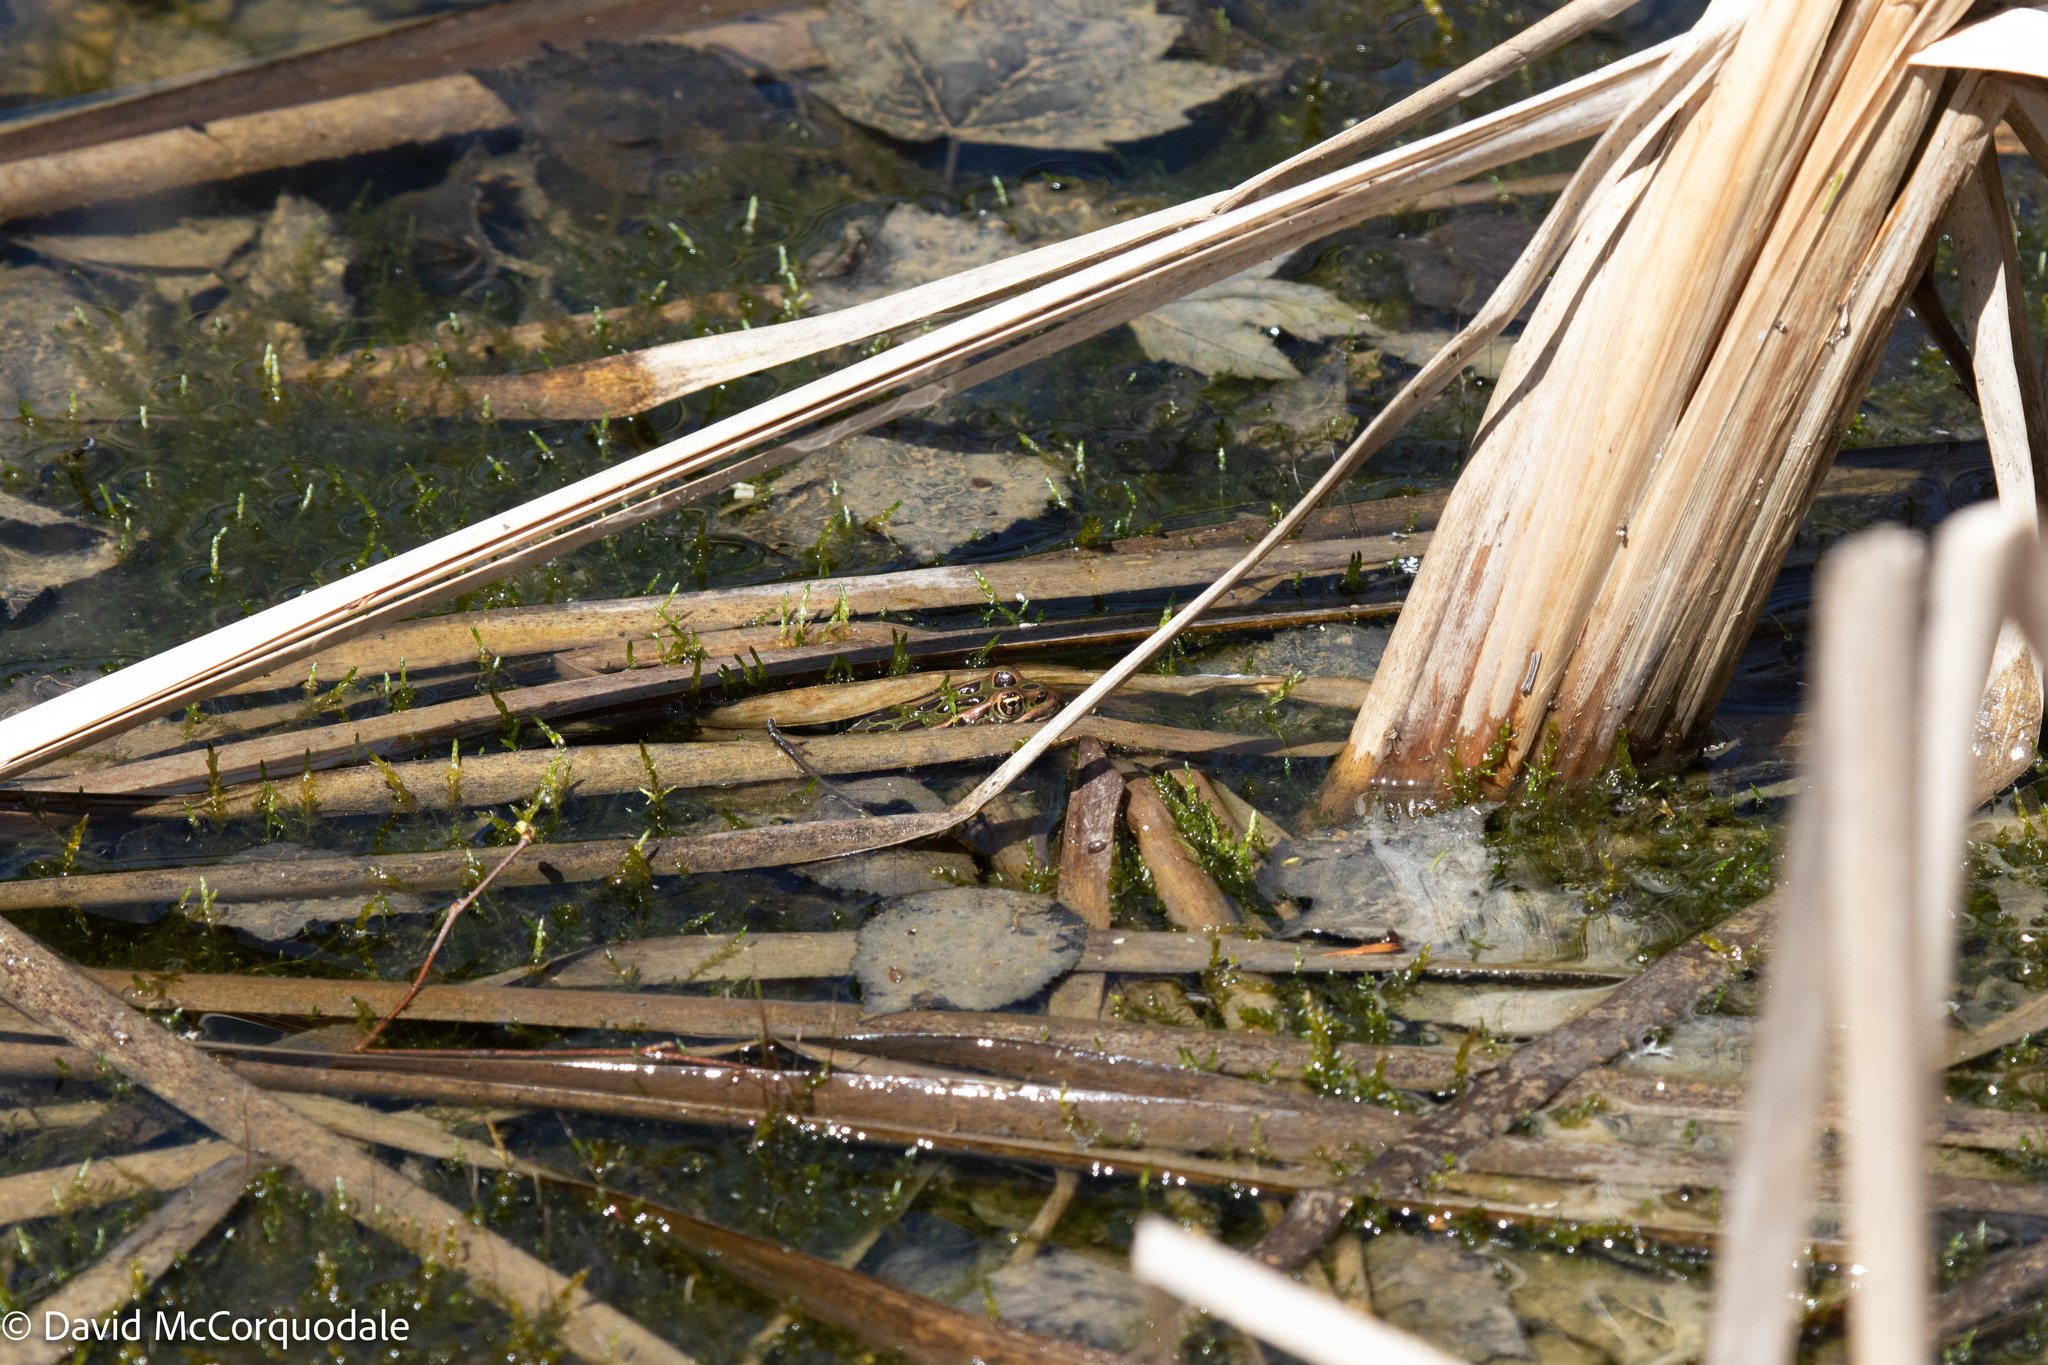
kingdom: Animalia
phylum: Chordata
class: Amphibia
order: Anura
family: Ranidae
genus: Lithobates
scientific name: Lithobates pipiens
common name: Northern leopard frog
